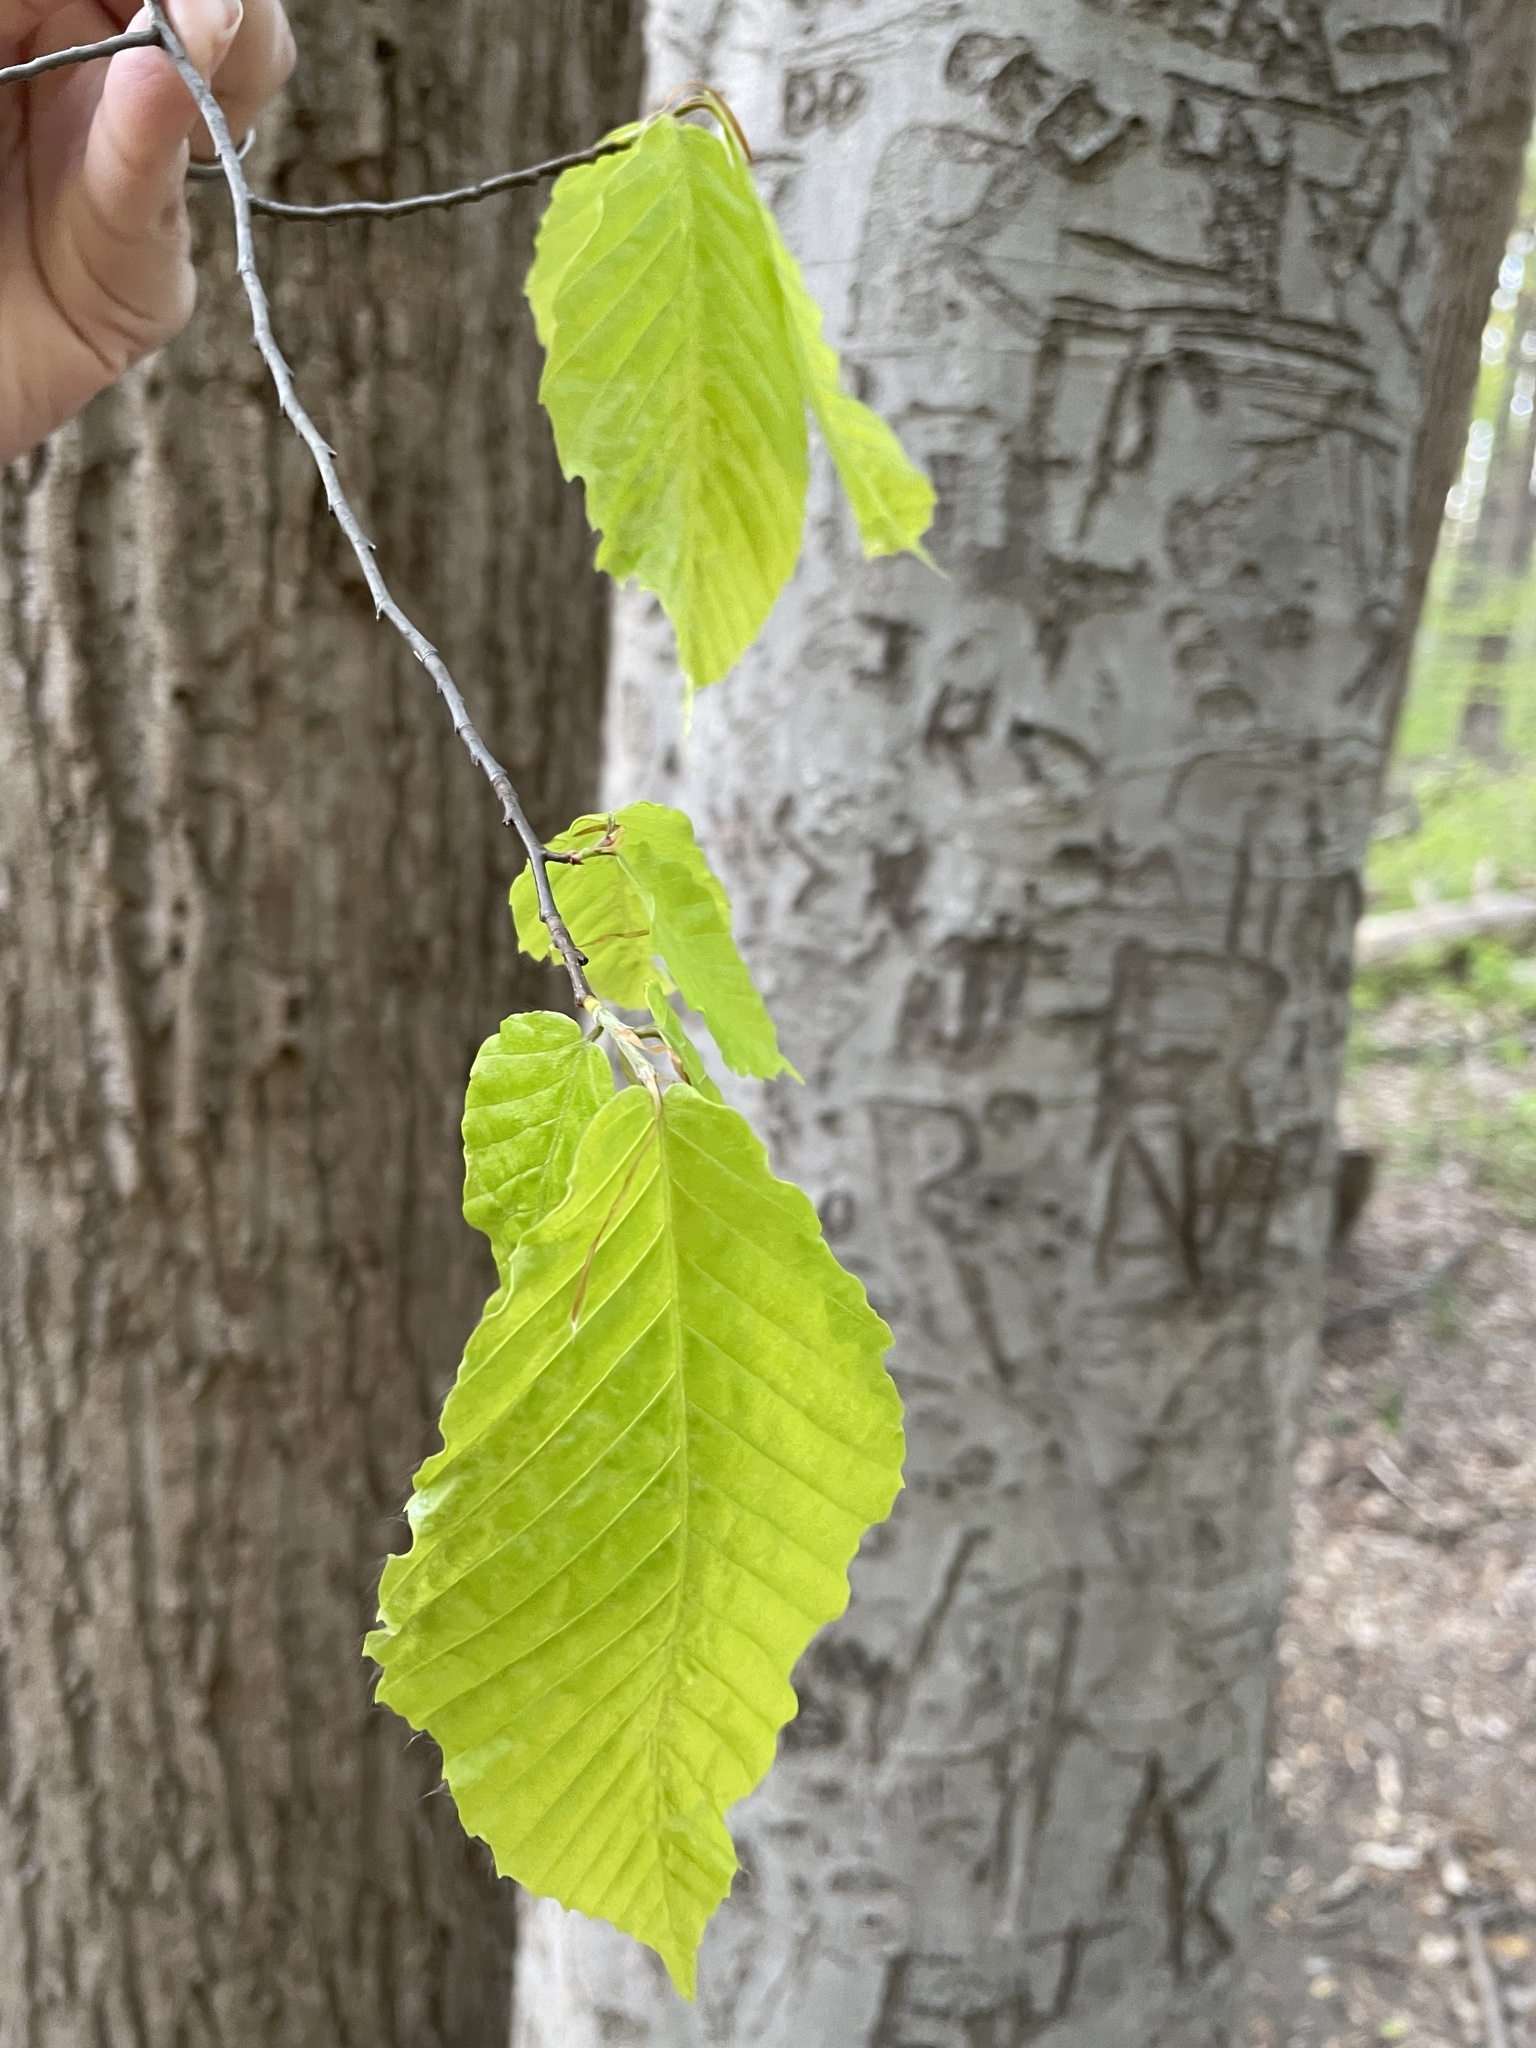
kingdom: Plantae
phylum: Tracheophyta
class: Magnoliopsida
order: Fagales
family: Fagaceae
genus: Fagus
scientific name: Fagus grandifolia
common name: American beech
